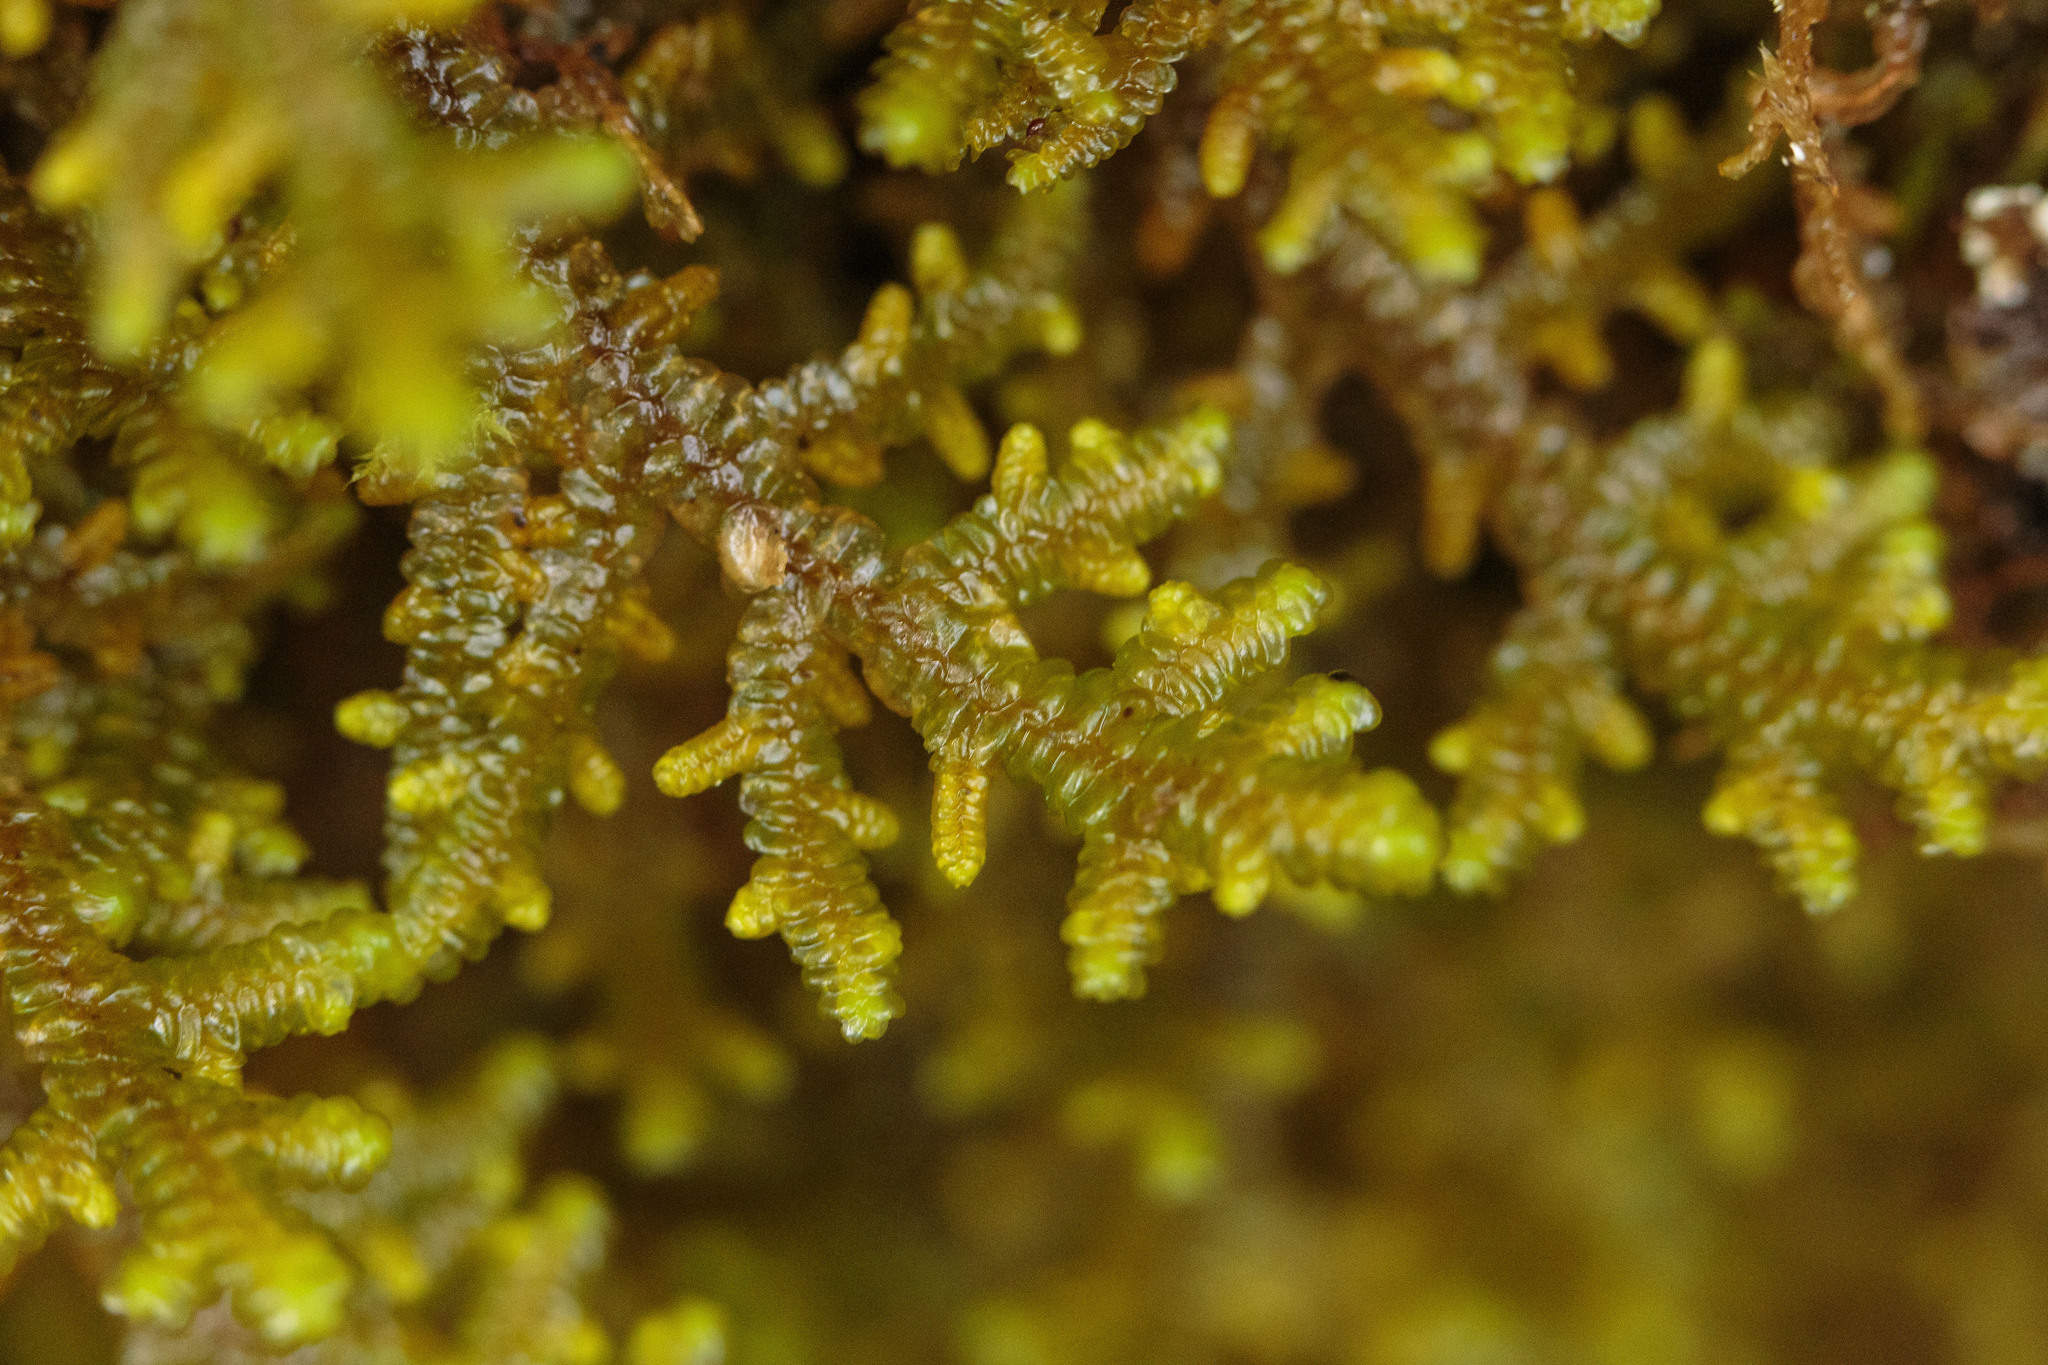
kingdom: Plantae
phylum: Marchantiophyta
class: Jungermanniopsida
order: Porellales
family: Porellaceae
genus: Porella
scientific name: Porella navicularis
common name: Tree ruffle liverwort
